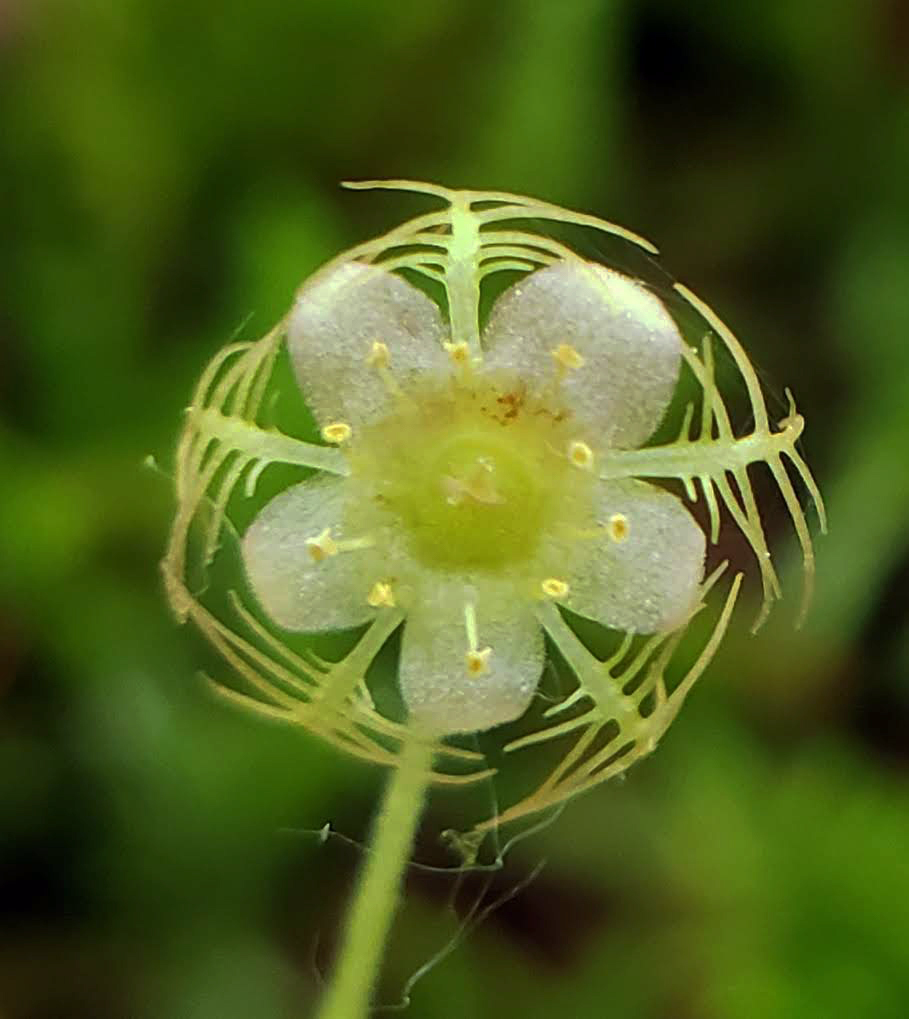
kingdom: Plantae
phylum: Tracheophyta
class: Magnoliopsida
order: Saxifragales
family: Saxifragaceae
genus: Mitella
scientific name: Mitella nuda
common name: Bare-stemmed bishop's-cap
